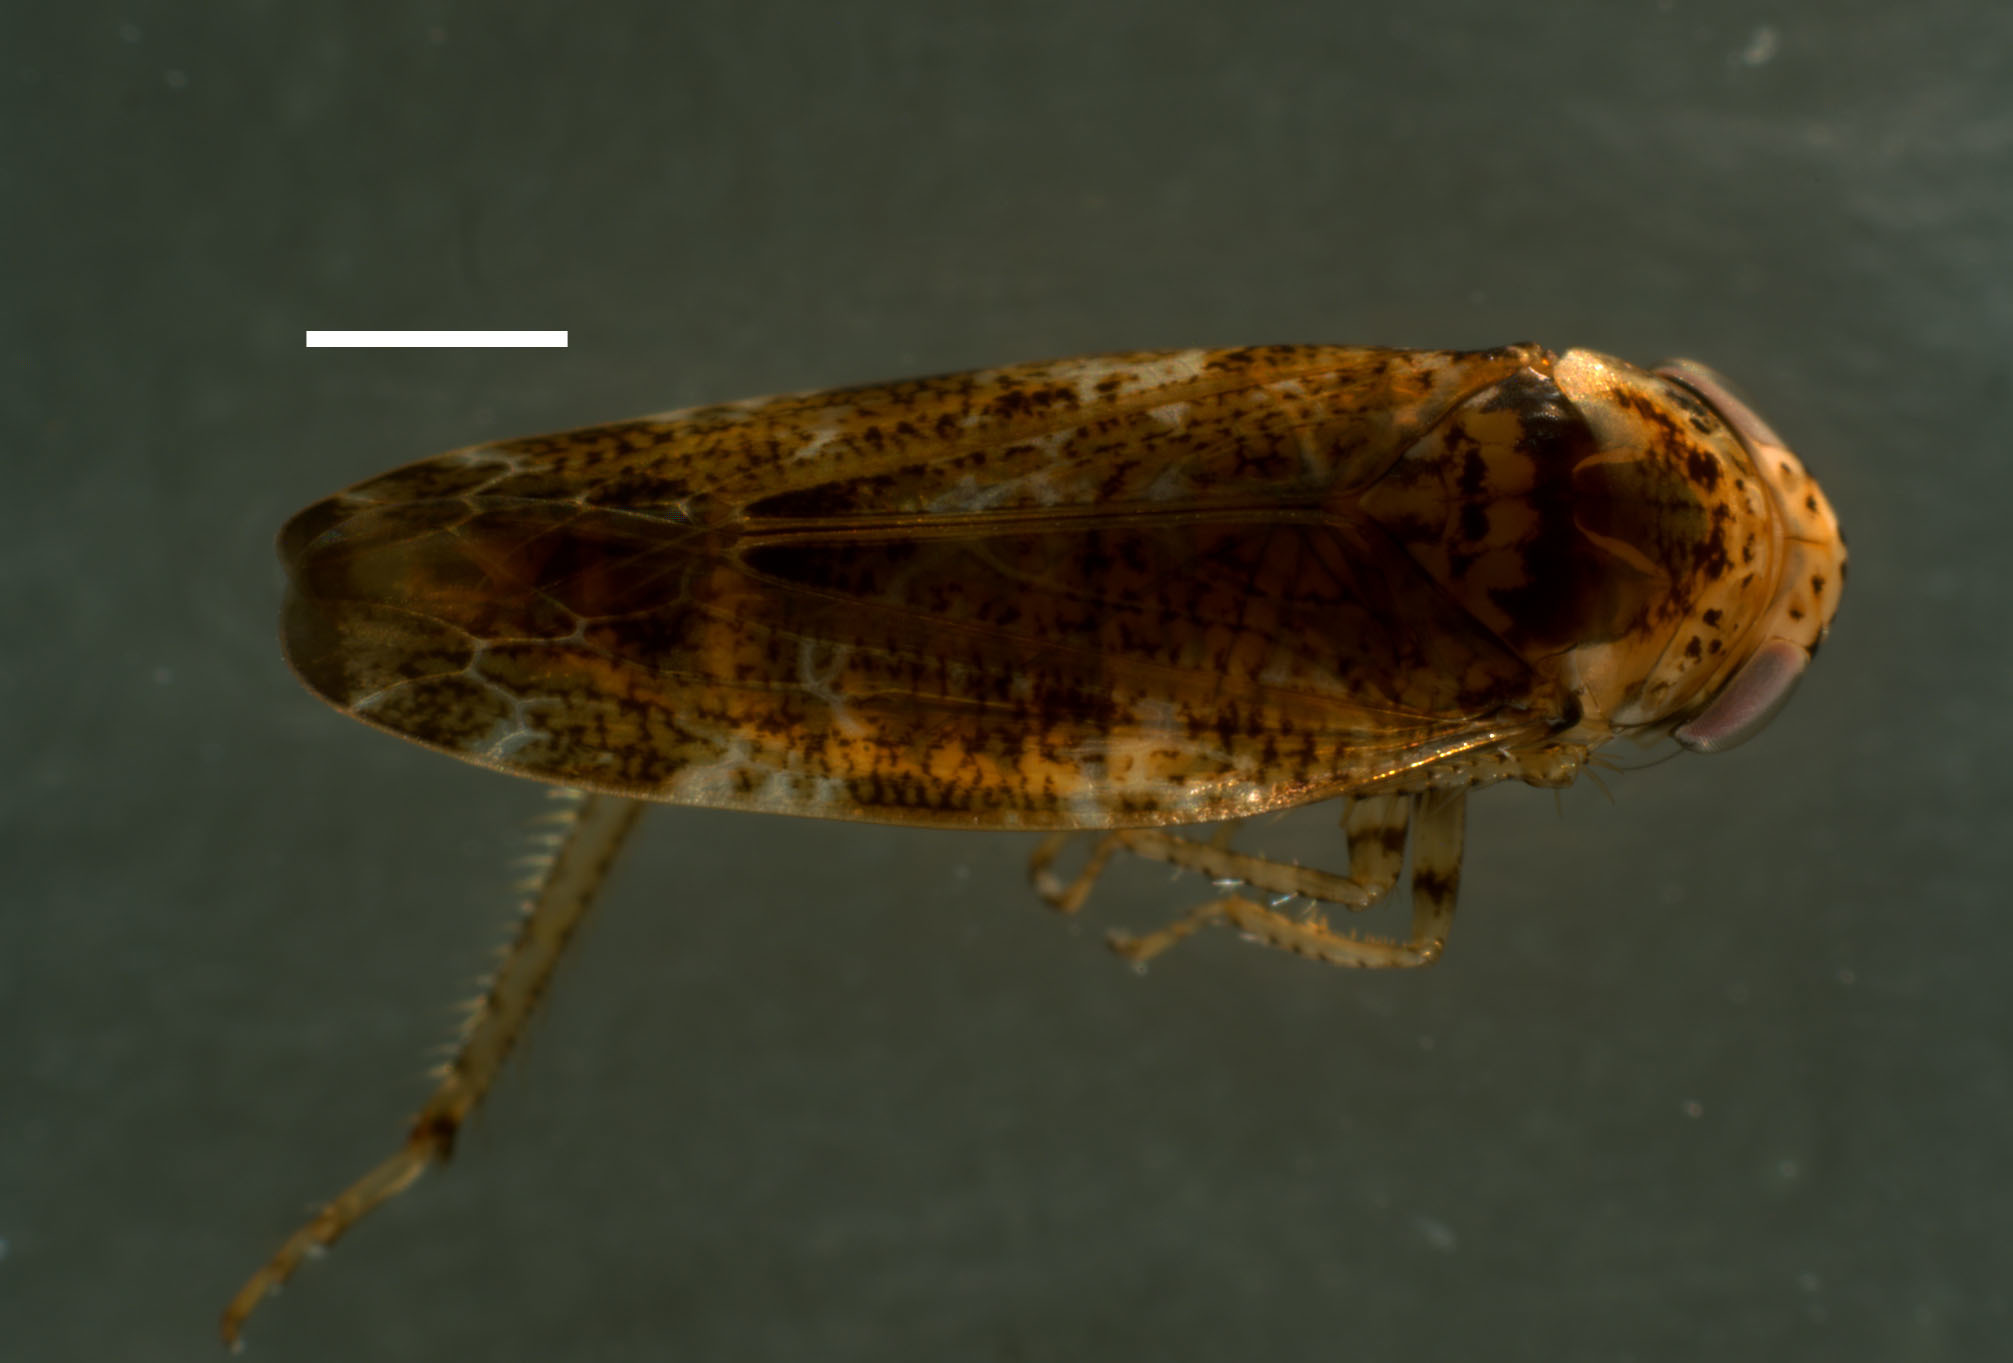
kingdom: Animalia
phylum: Arthropoda
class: Insecta
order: Hemiptera
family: Cicadellidae
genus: Allygus
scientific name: Allygus mixtus
